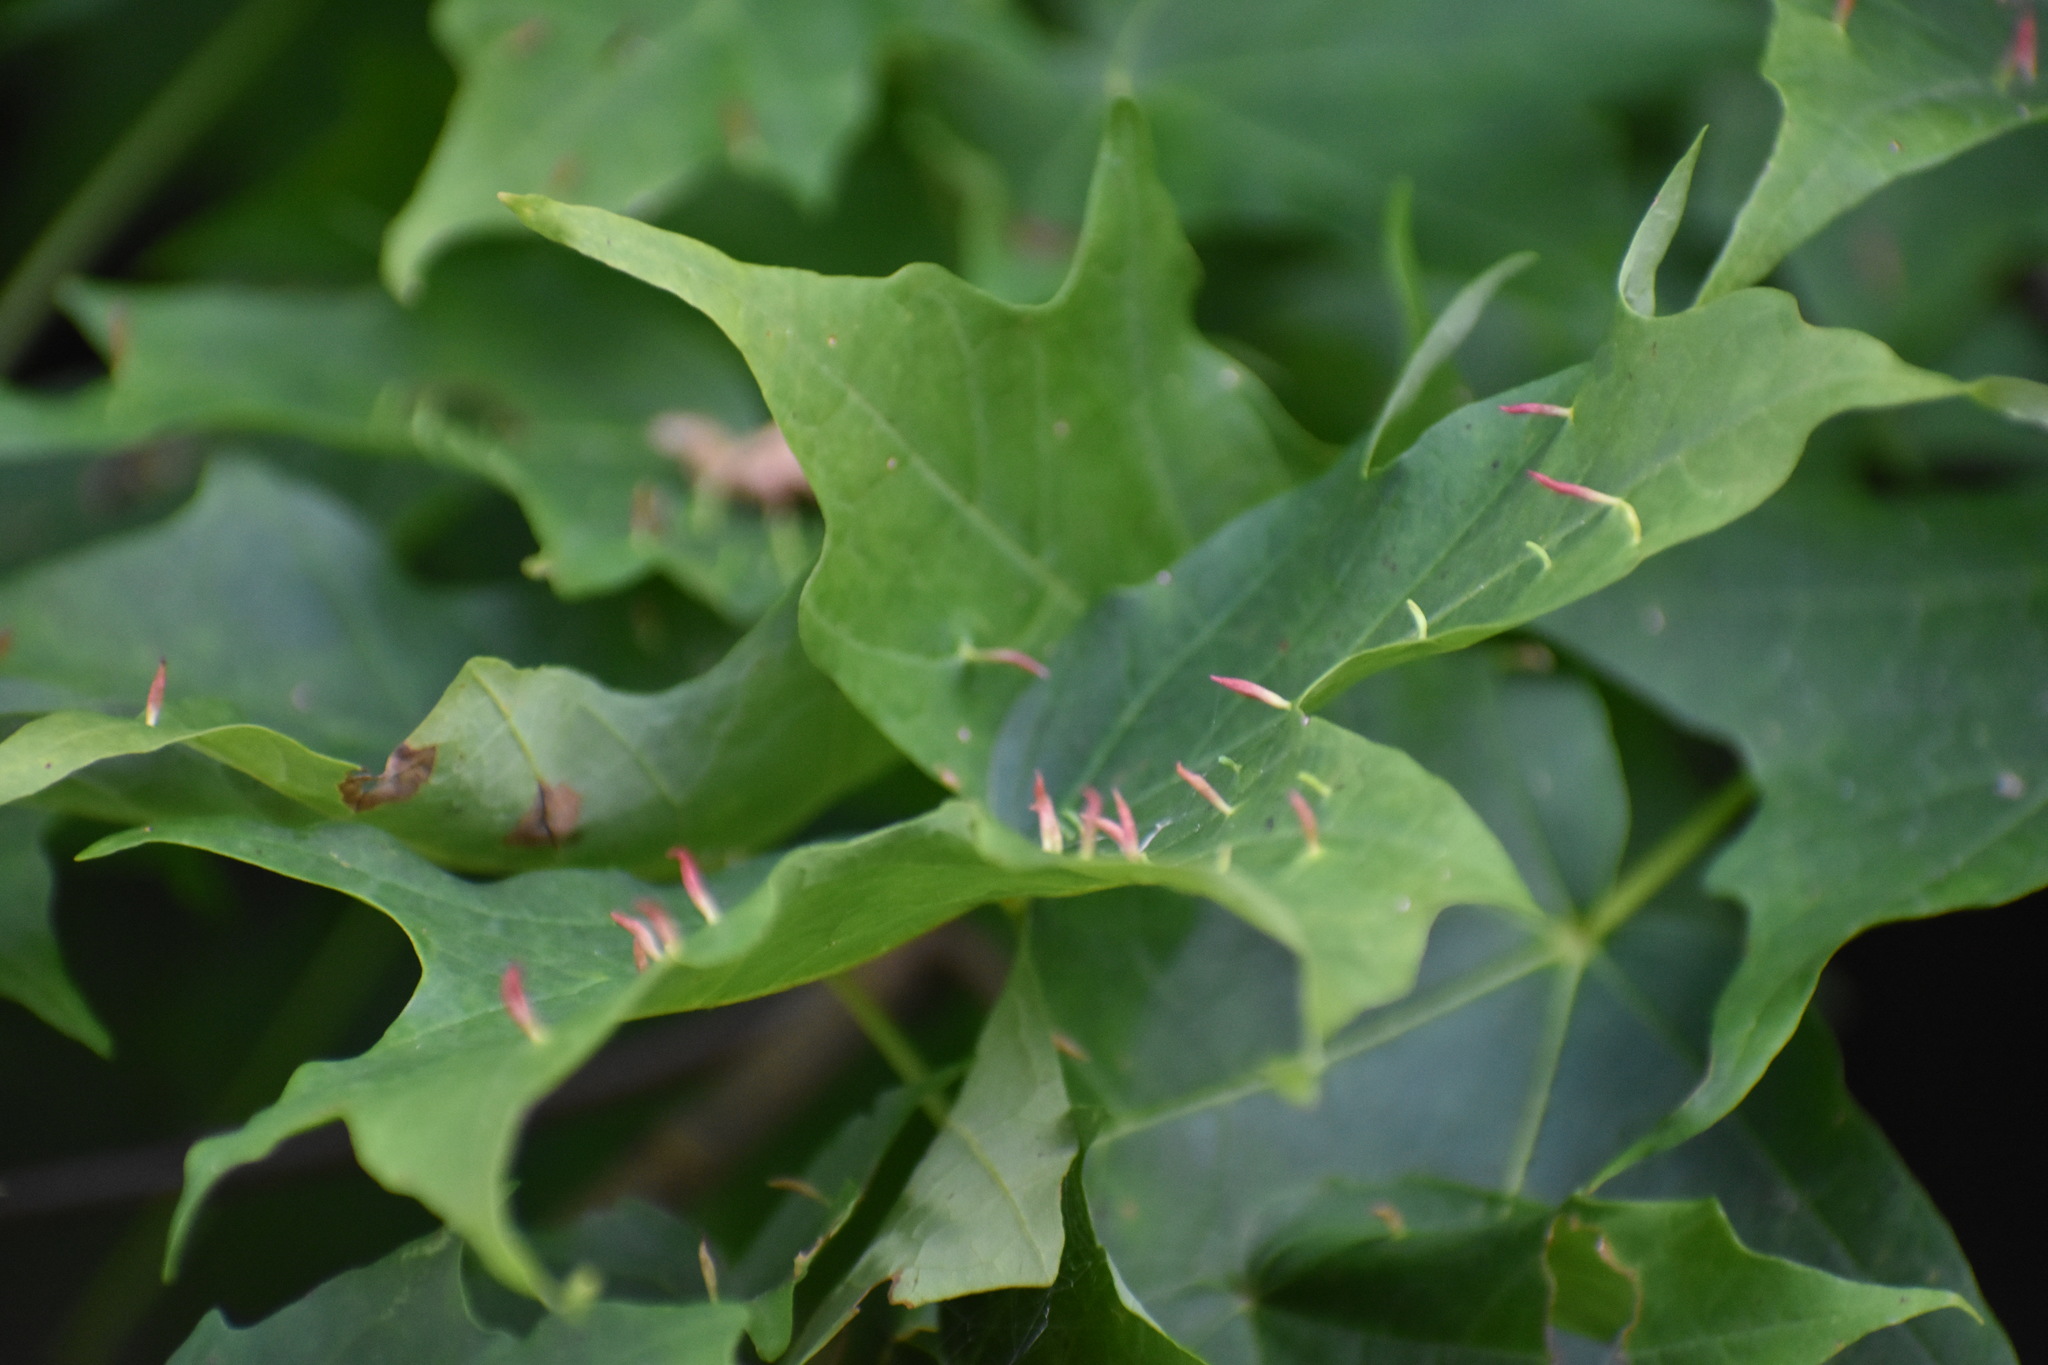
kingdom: Animalia
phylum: Arthropoda
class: Arachnida
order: Trombidiformes
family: Eriophyidae
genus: Vasates
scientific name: Vasates aceriscrumena
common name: Maple spindle gall mite
